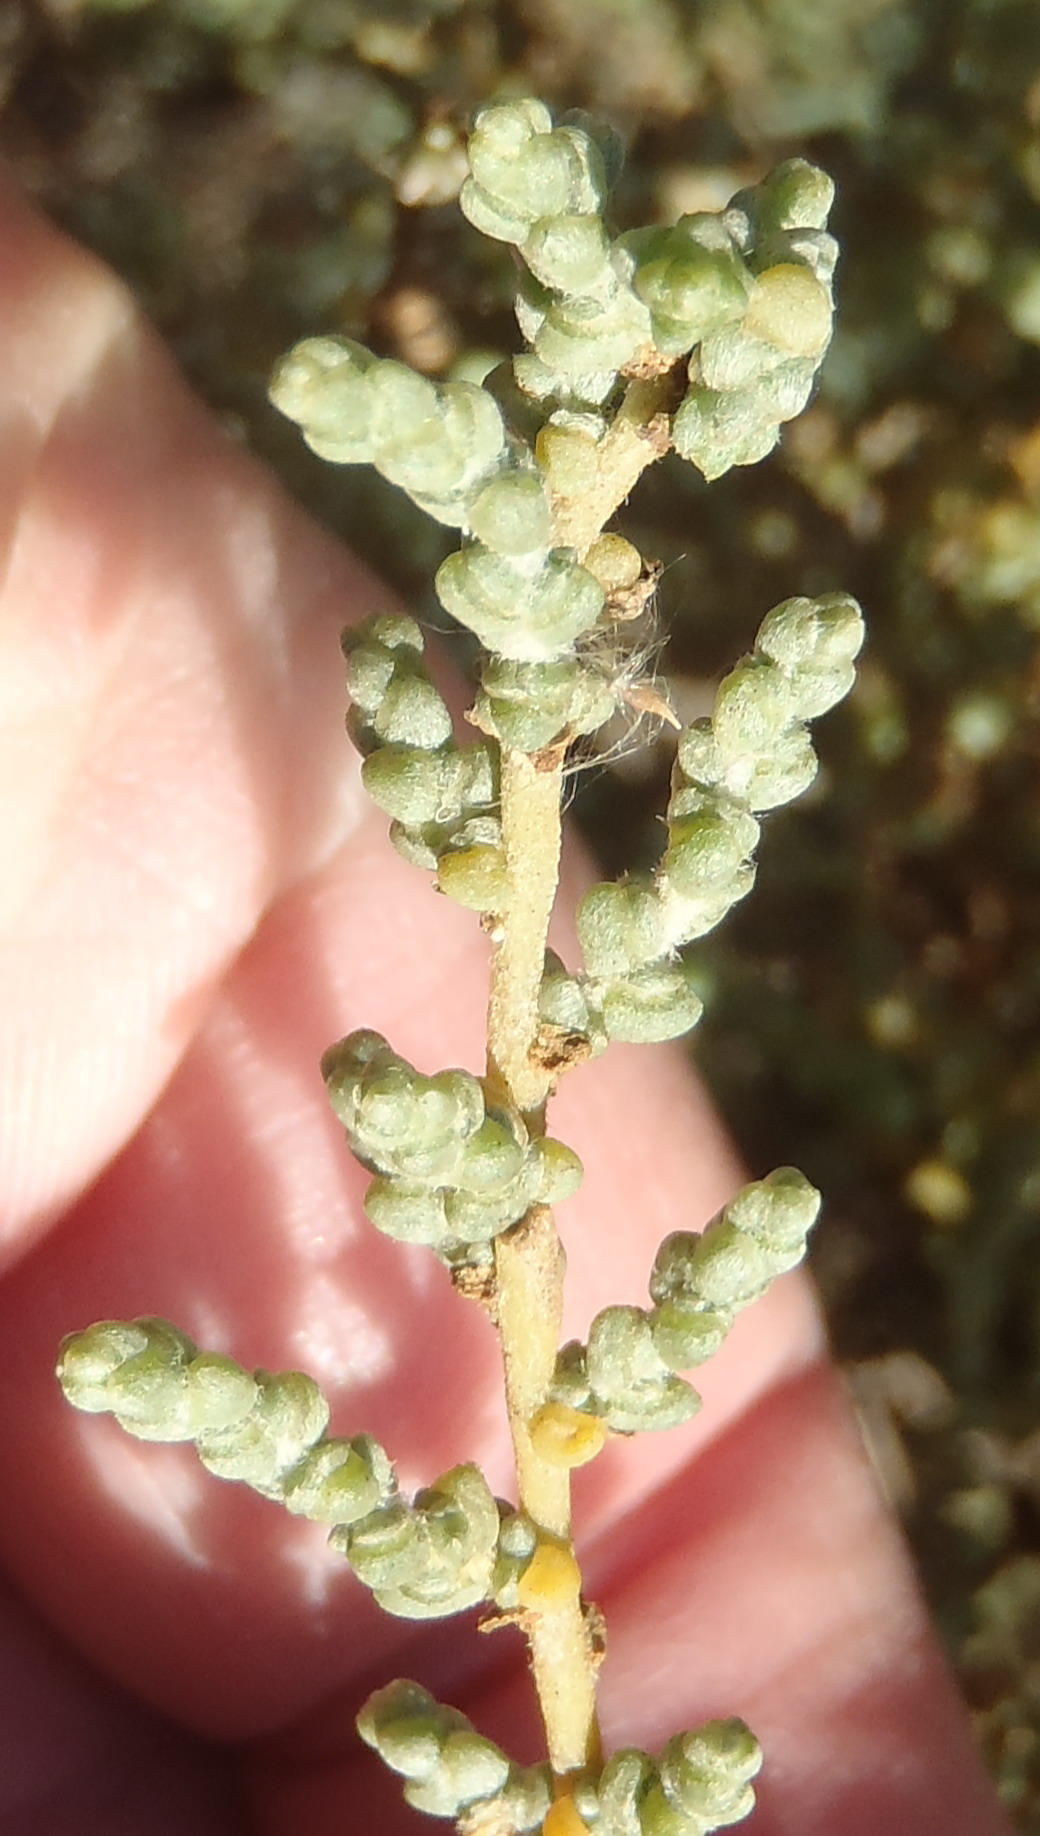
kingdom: Plantae
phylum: Tracheophyta
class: Magnoliopsida
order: Caryophyllales
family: Amaranthaceae
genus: Caroxylon
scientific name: Caroxylon aphyllum
